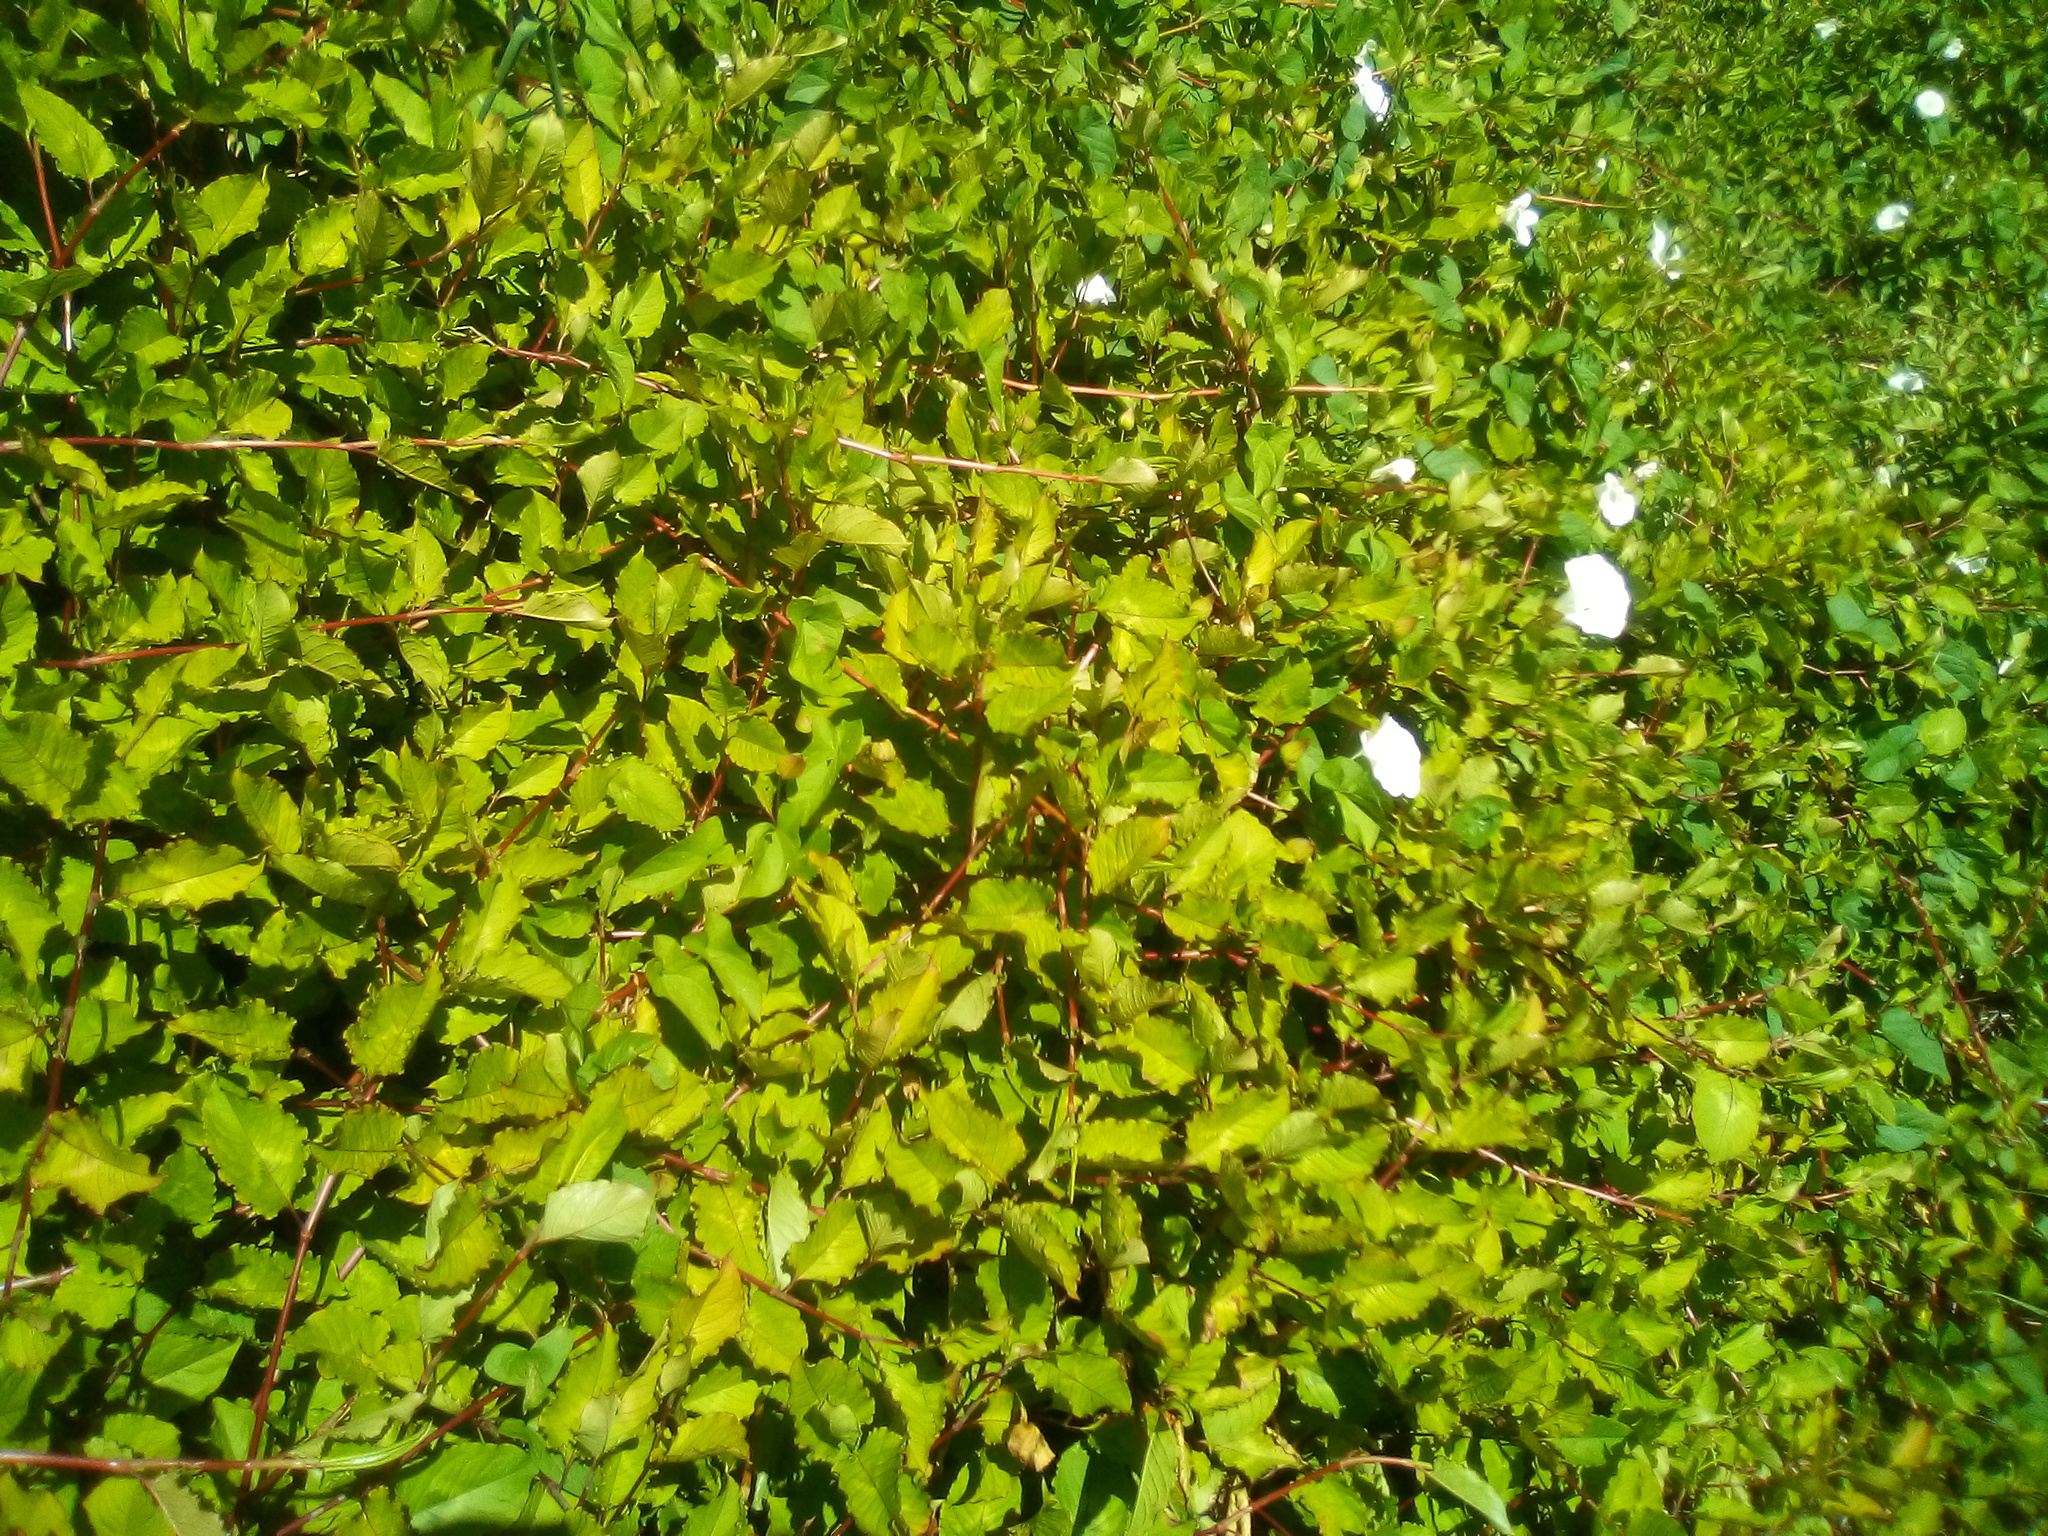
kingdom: Plantae
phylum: Tracheophyta
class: Magnoliopsida
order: Caryophyllales
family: Polygonaceae
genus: Persicaria
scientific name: Persicaria chinensis
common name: Chinese knotweed
